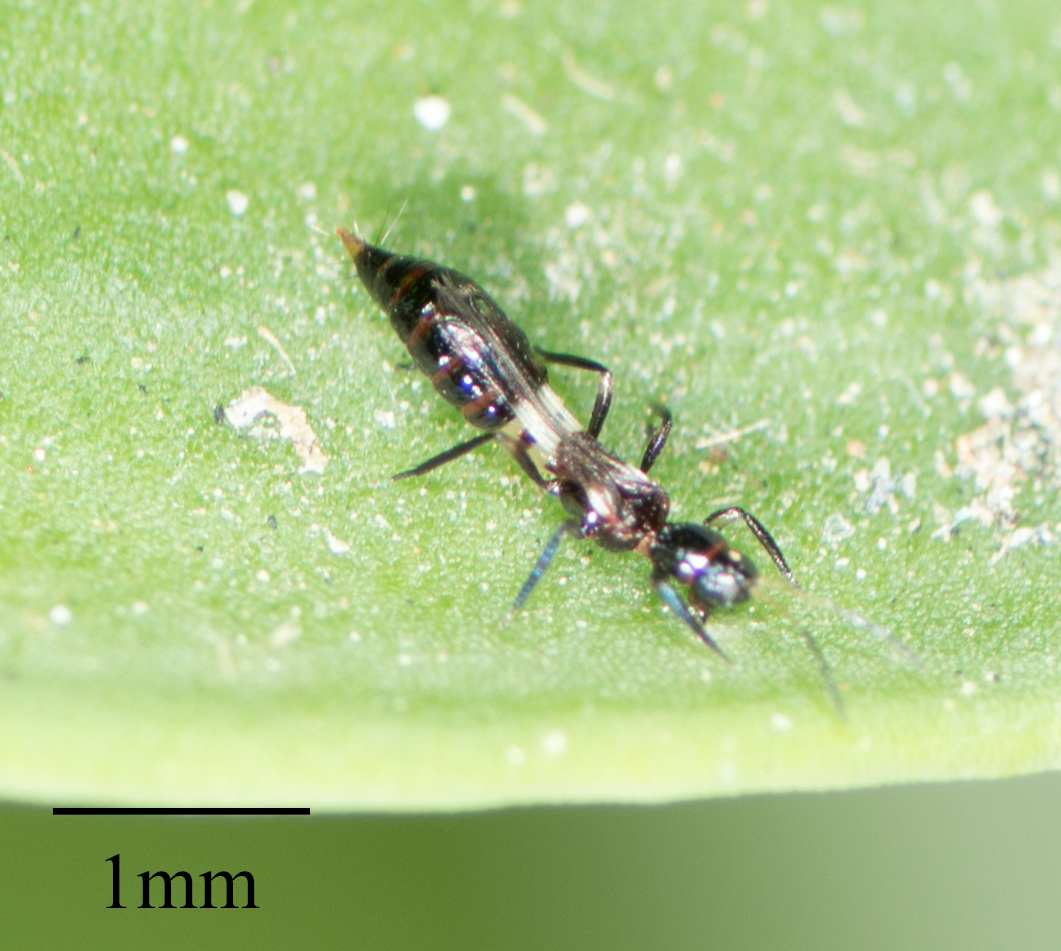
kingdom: Animalia
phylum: Arthropoda
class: Insecta
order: Thysanoptera
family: Aeolothripidae
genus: Franklinothrips
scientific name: Franklinothrips vespiformis
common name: Banded thrip
